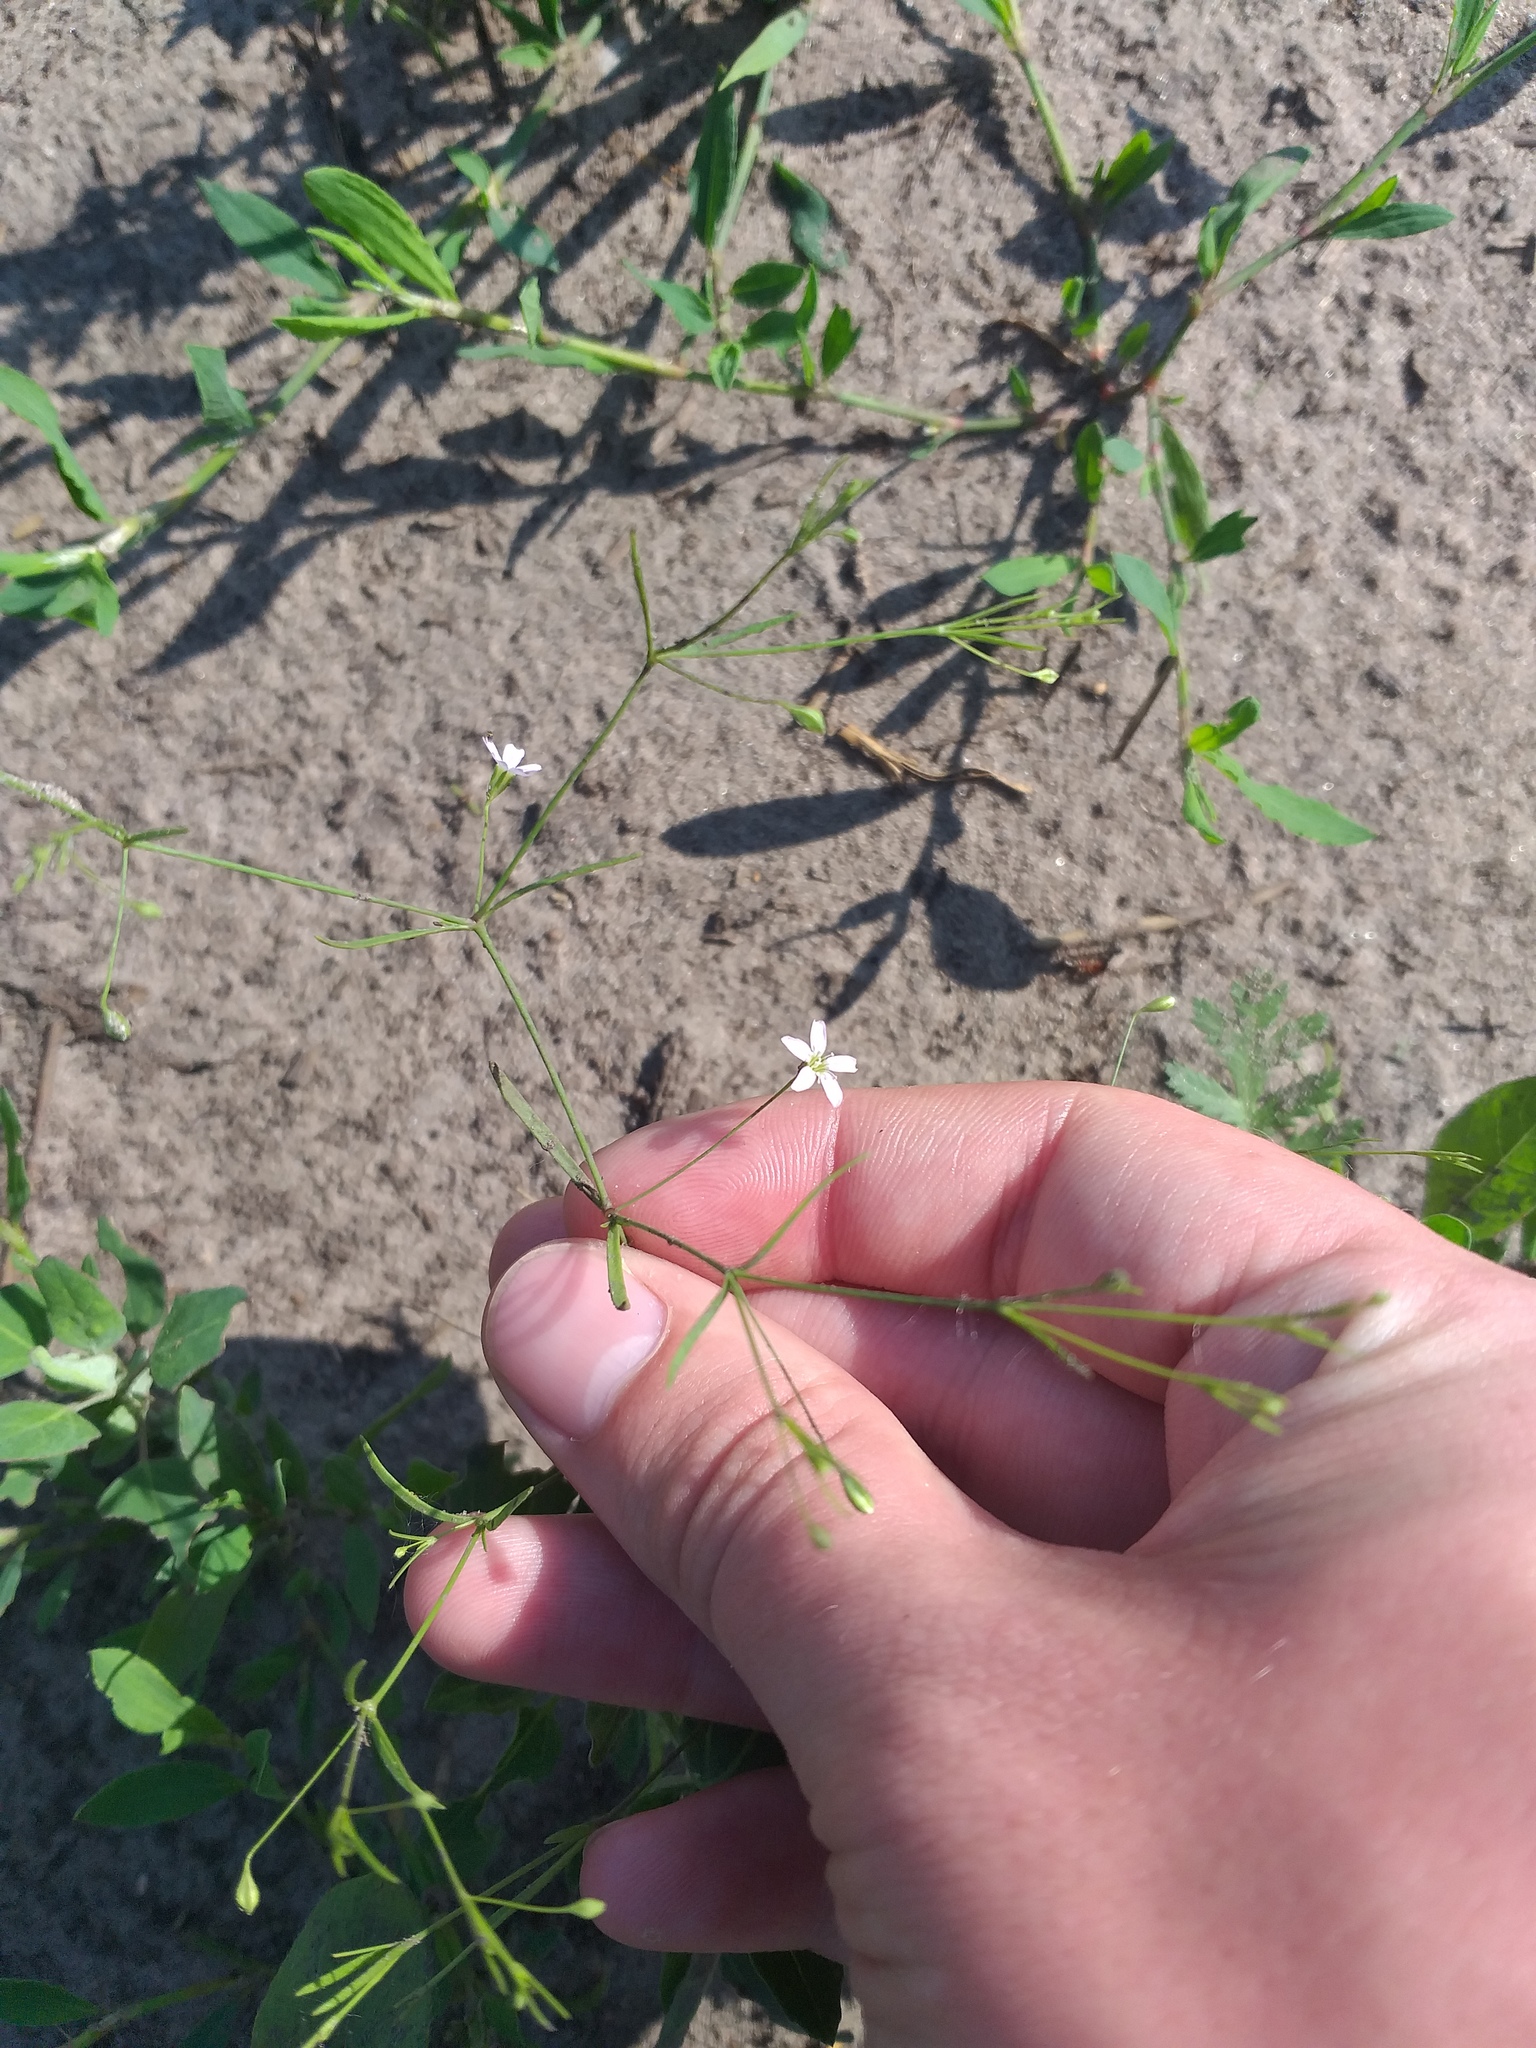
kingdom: Plantae
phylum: Tracheophyta
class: Magnoliopsida
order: Caryophyllales
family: Caryophyllaceae
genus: Psammophiliella
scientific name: Psammophiliella muralis
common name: Cushion baby's-breath
